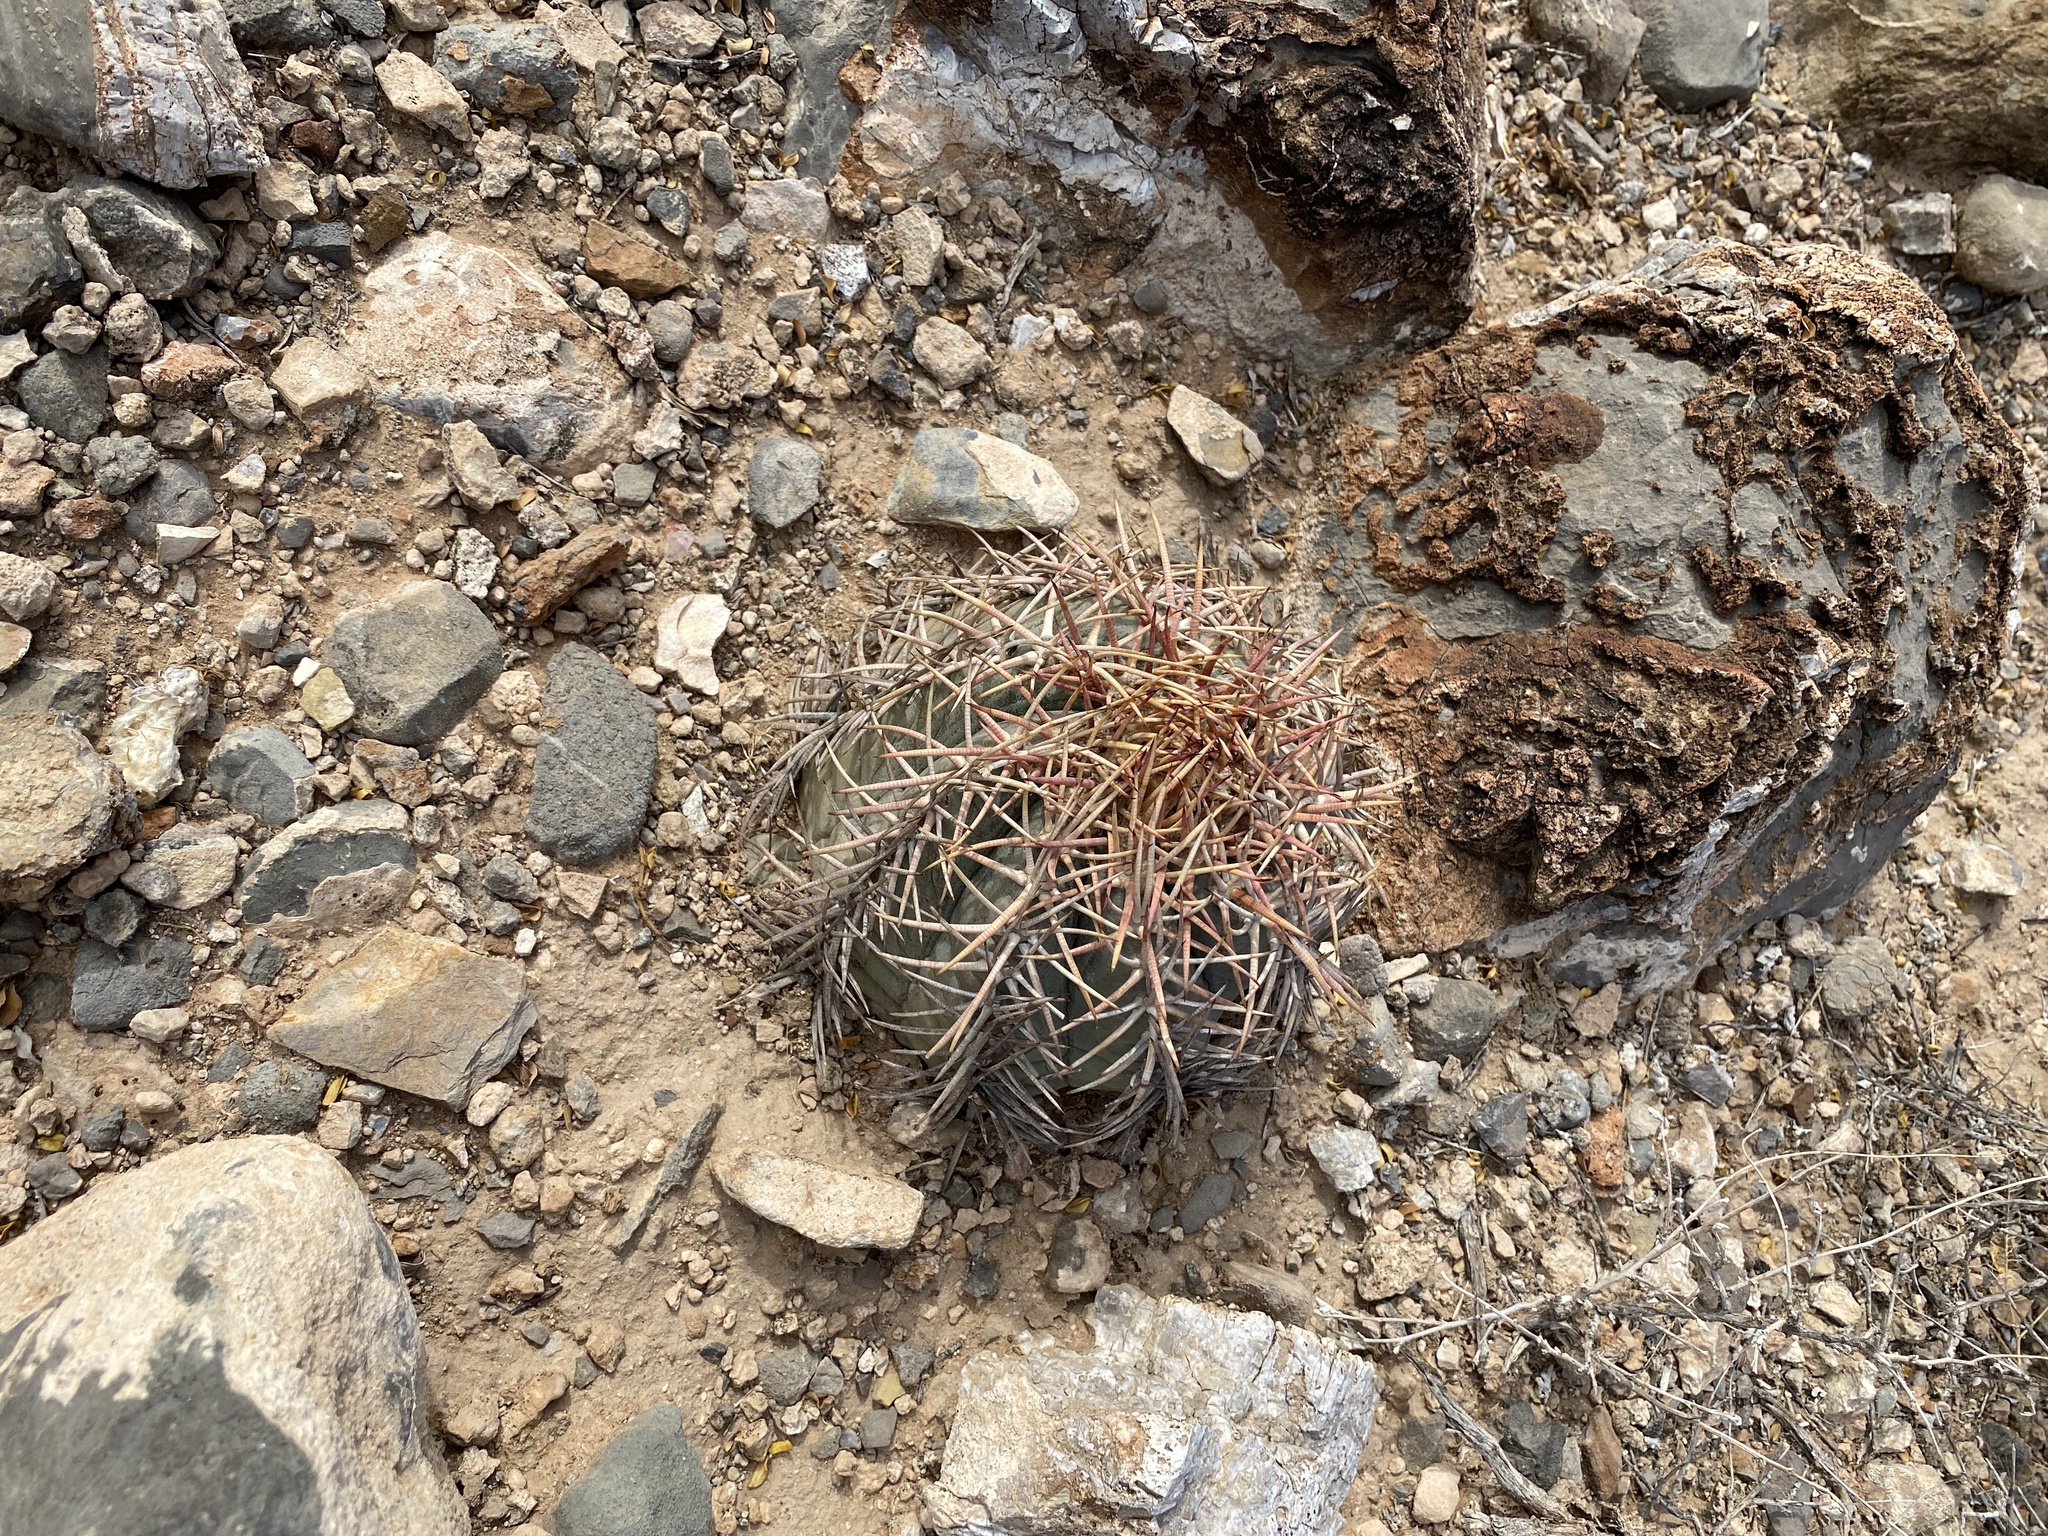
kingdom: Plantae
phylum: Tracheophyta
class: Magnoliopsida
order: Caryophyllales
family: Cactaceae
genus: Echinocactus
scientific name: Echinocactus horizonthalonius
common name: Devilshead
